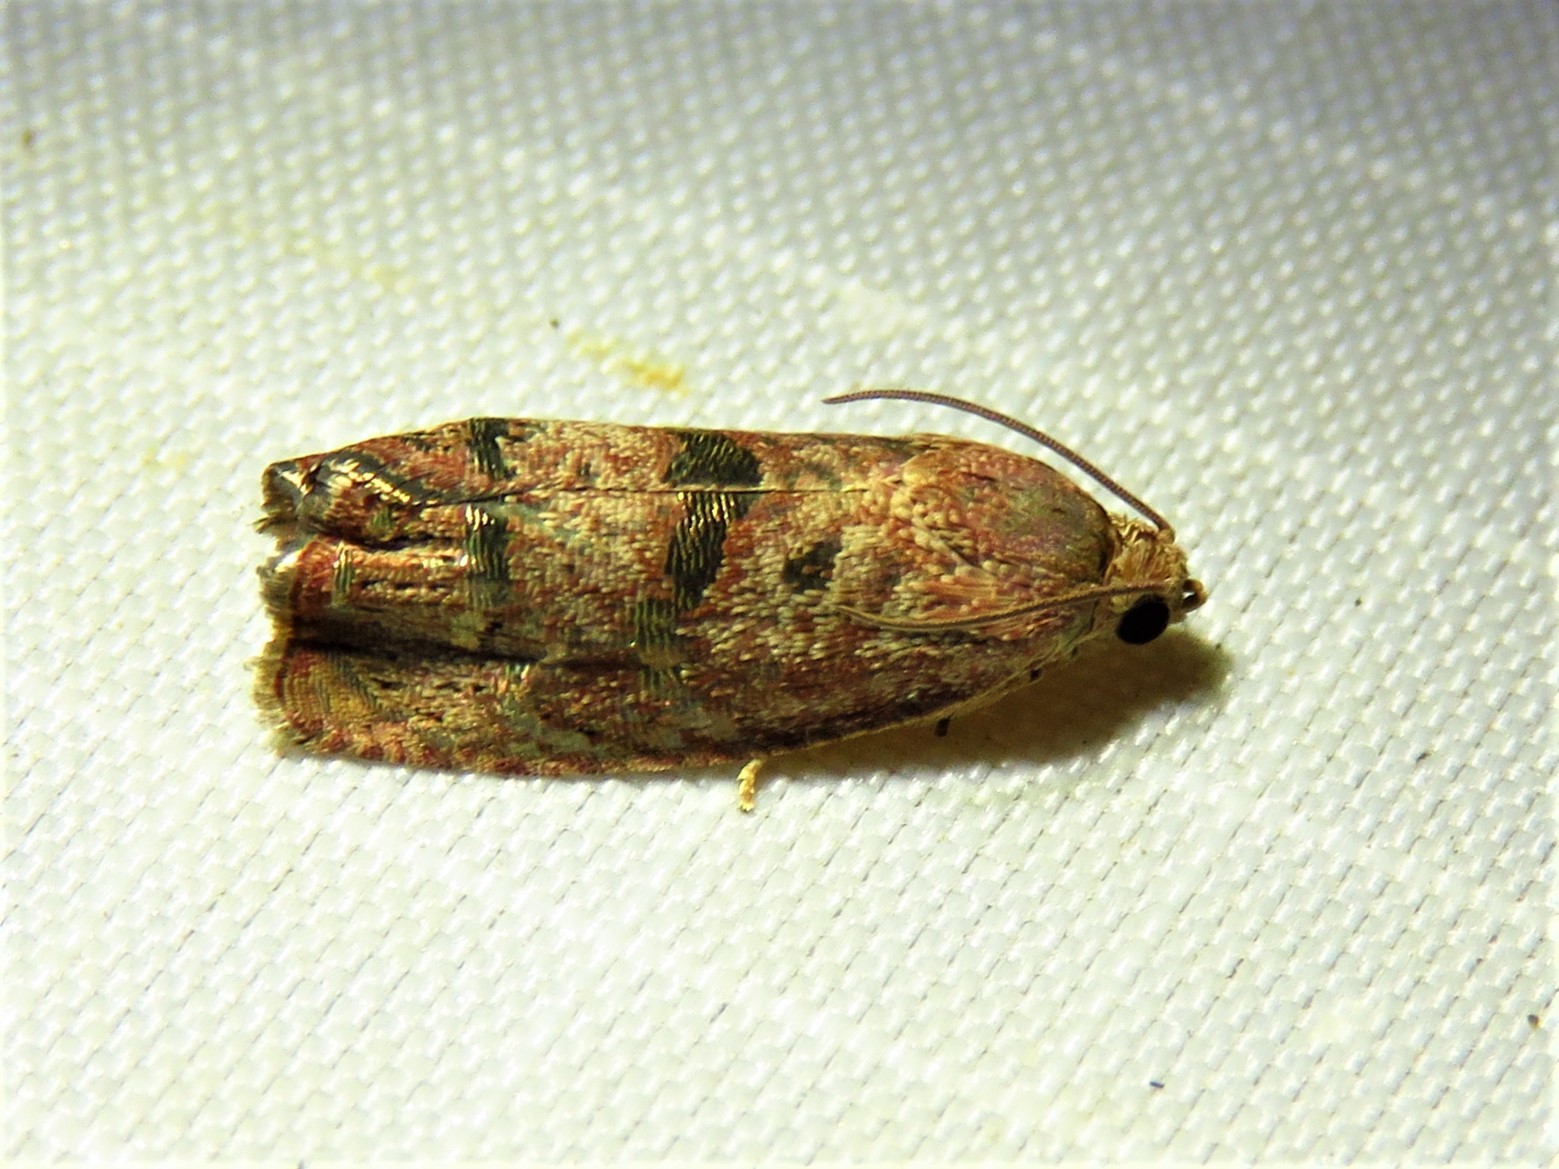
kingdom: Animalia
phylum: Arthropoda
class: Insecta
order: Lepidoptera
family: Tortricidae
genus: Cydia
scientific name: Cydia latiferreana
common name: Filbertworm moth
